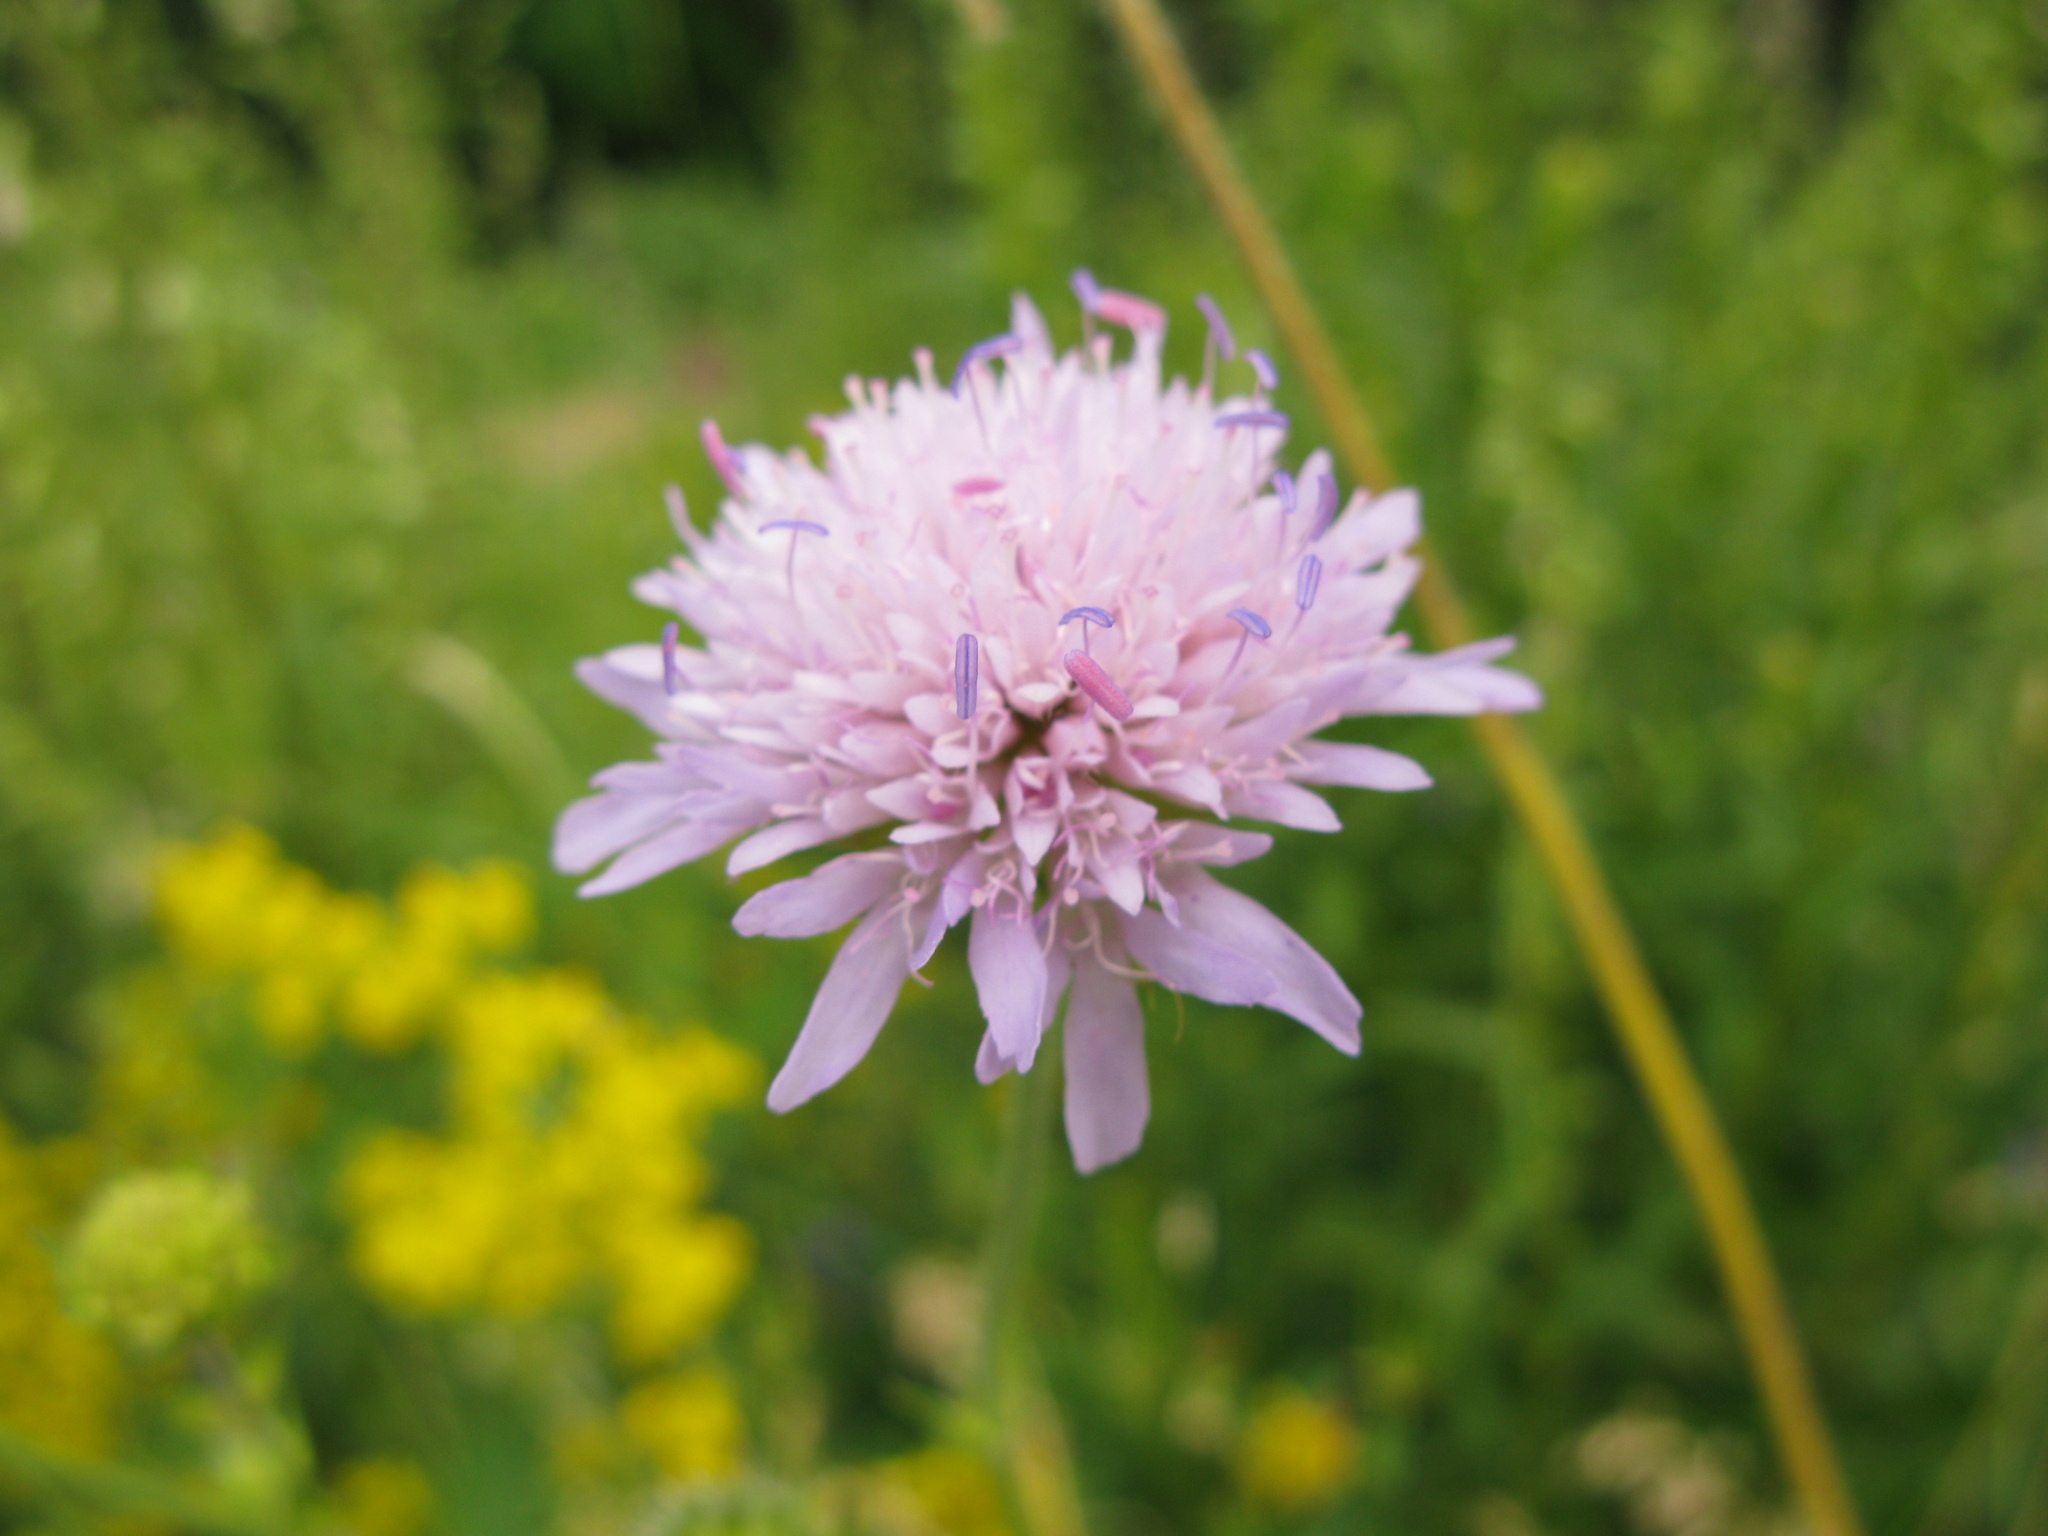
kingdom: Plantae
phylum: Tracheophyta
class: Magnoliopsida
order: Dipsacales
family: Caprifoliaceae
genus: Knautia
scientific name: Knautia arvensis
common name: Field scabiosa
